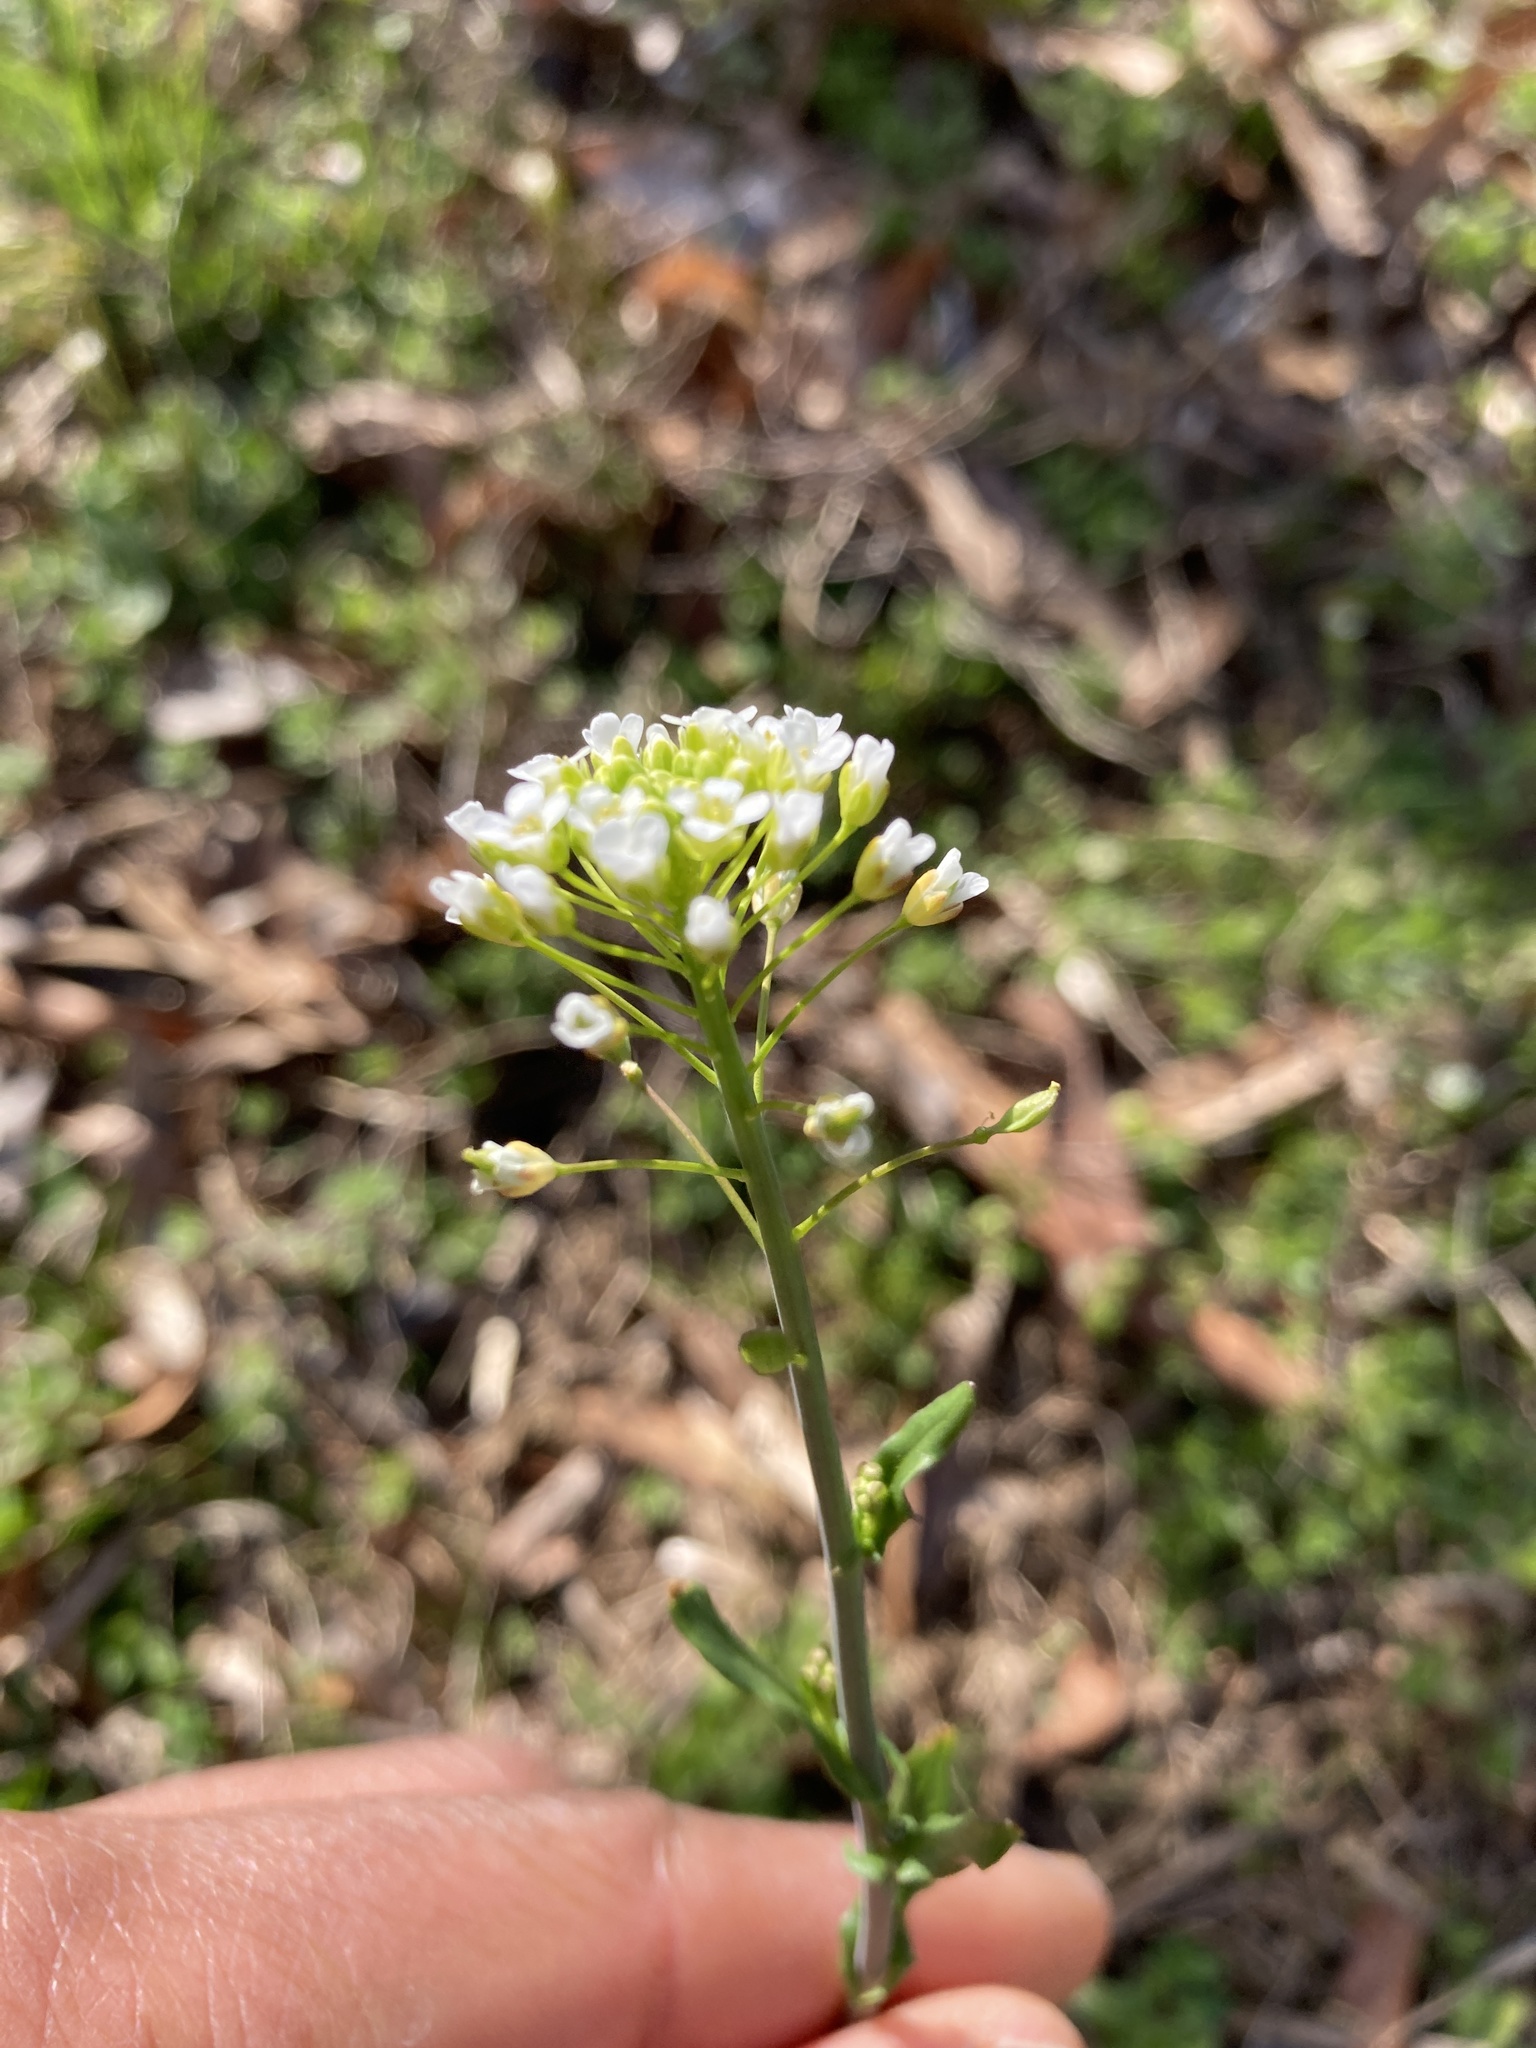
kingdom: Plantae
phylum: Tracheophyta
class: Magnoliopsida
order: Brassicales
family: Brassicaceae
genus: Mummenhoffia
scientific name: Mummenhoffia alliacea
